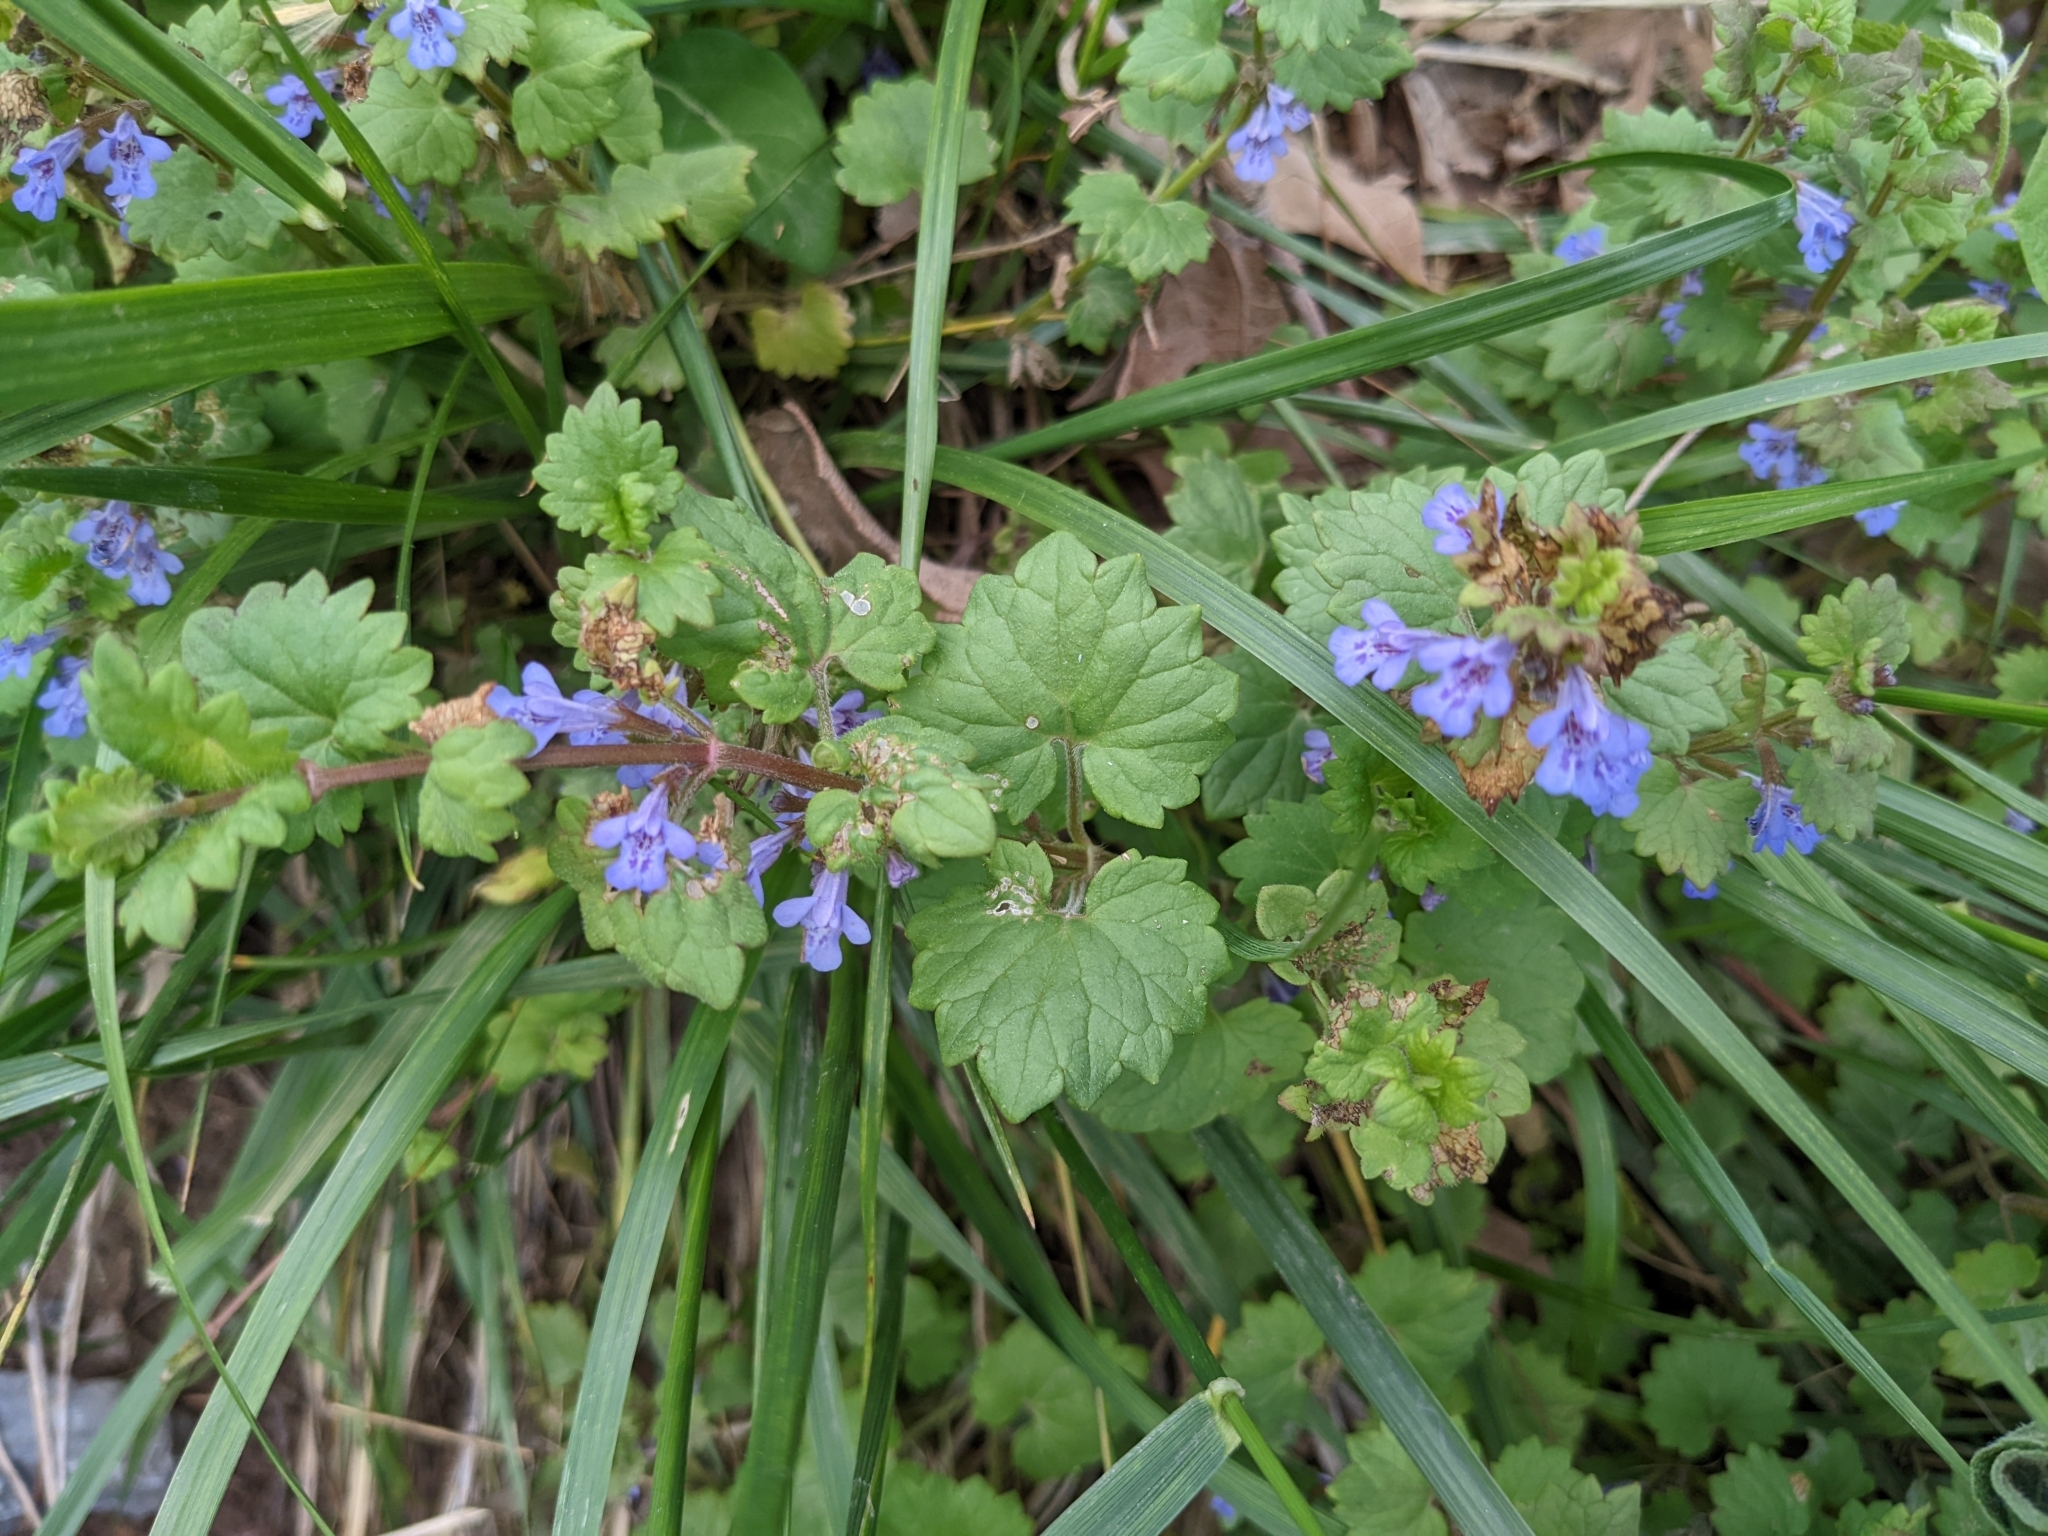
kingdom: Plantae
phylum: Tracheophyta
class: Magnoliopsida
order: Lamiales
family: Lamiaceae
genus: Glechoma
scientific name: Glechoma hederacea
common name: Ground ivy
